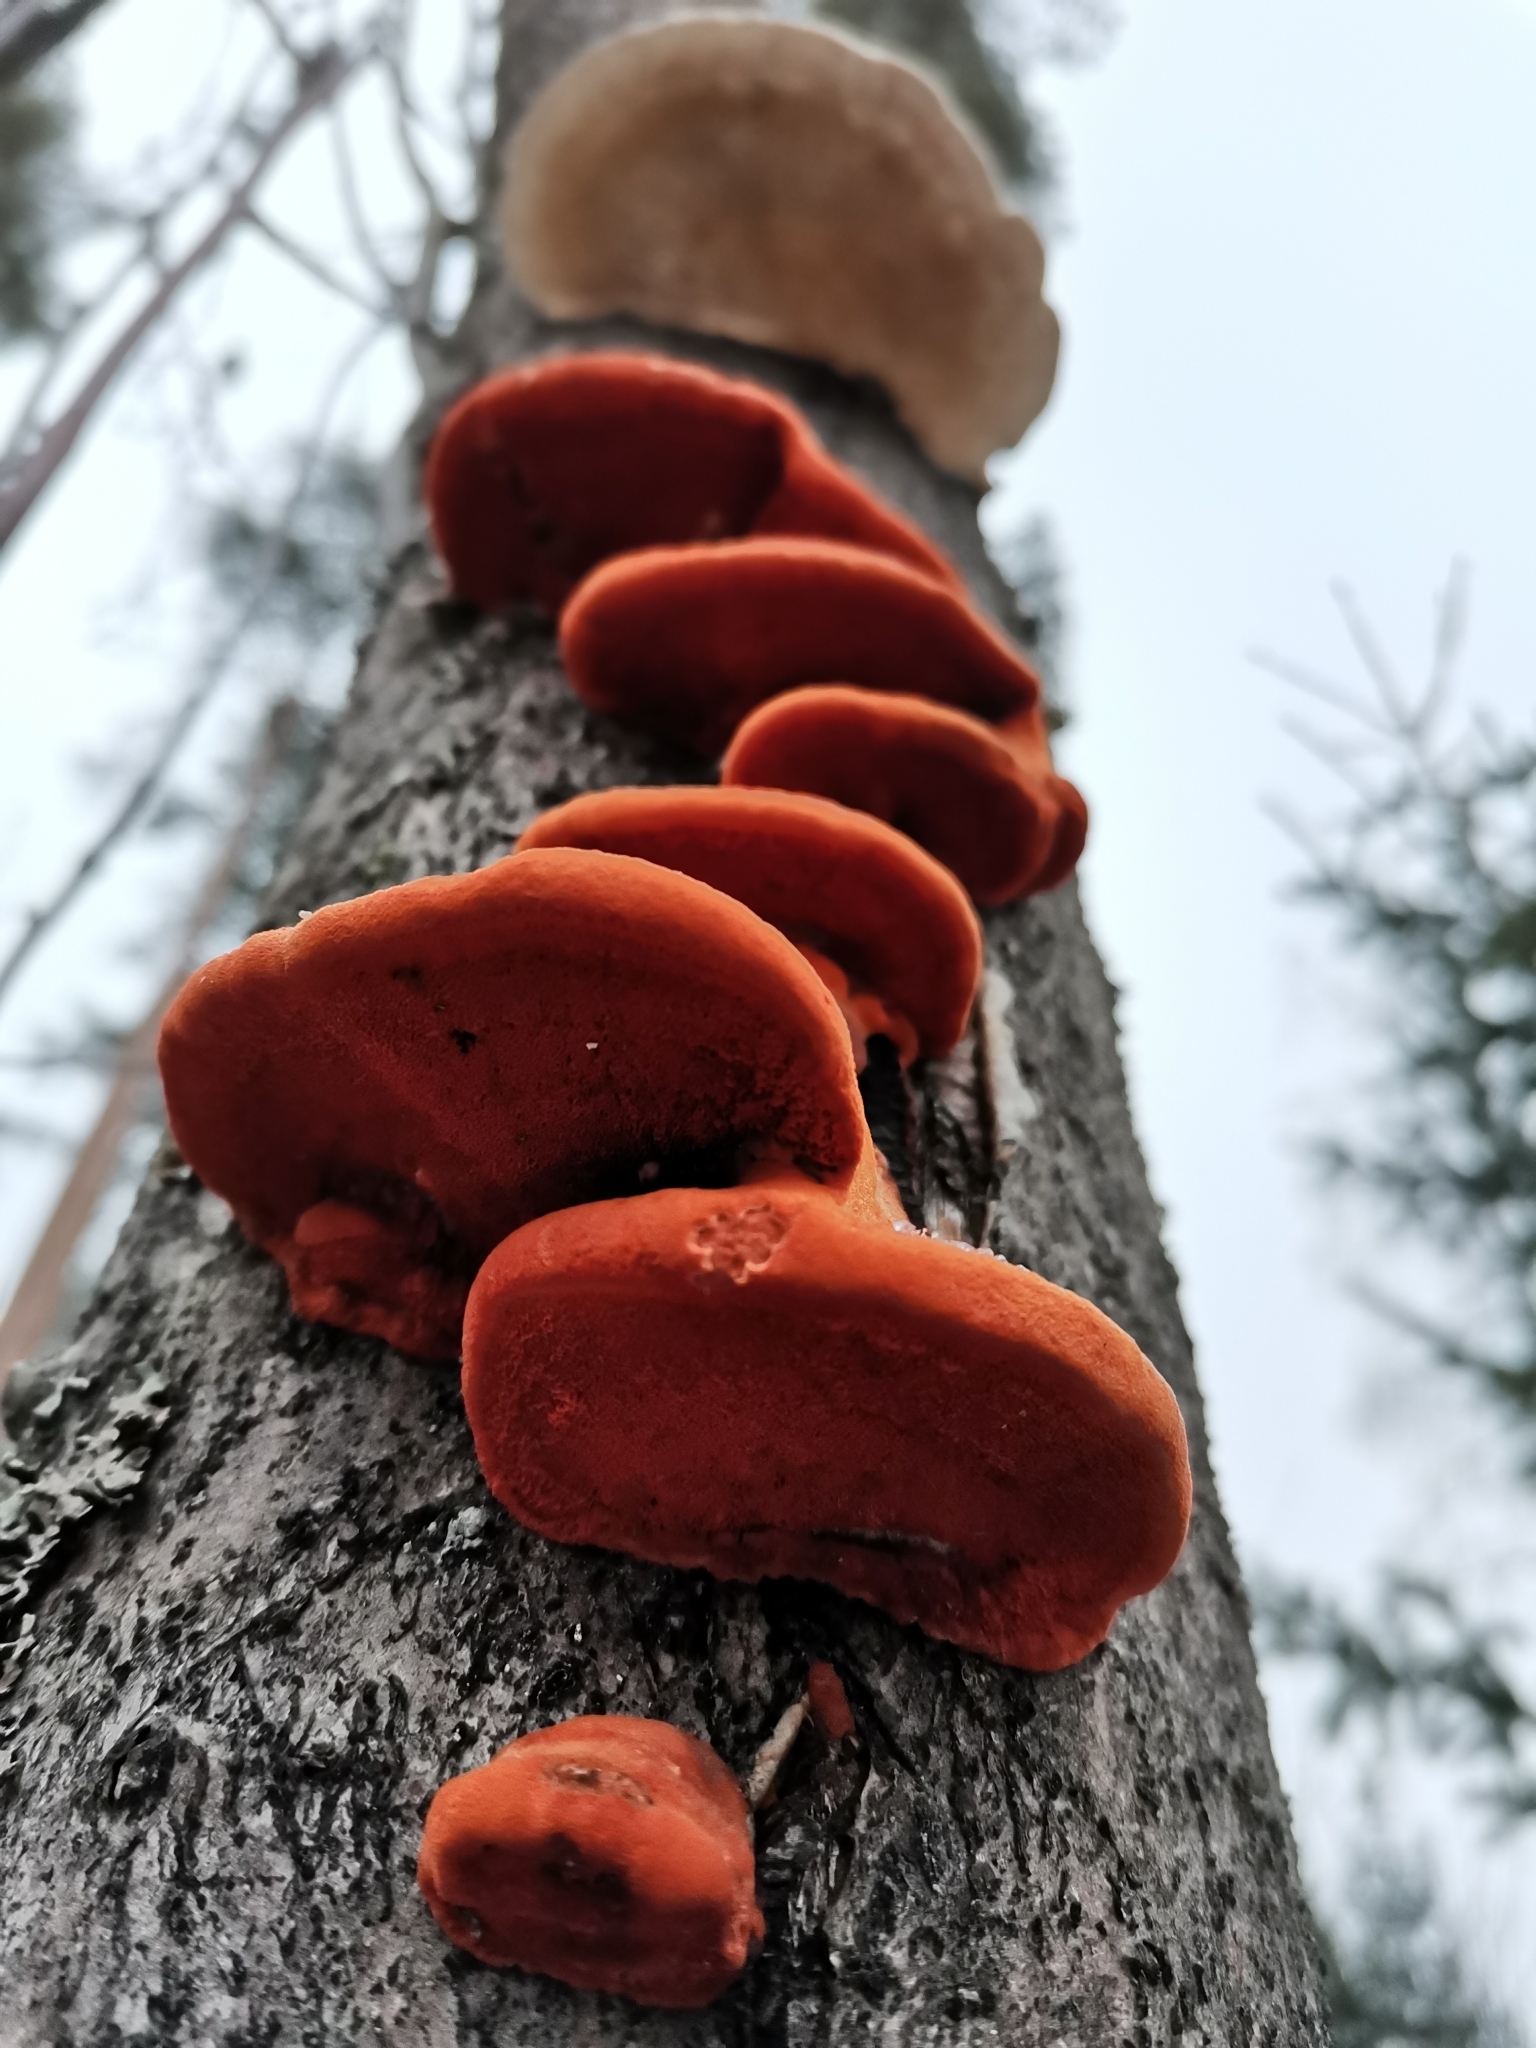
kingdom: Fungi
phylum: Basidiomycota
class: Agaricomycetes
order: Polyporales
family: Polyporaceae
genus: Trametes
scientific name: Trametes cinnabarina
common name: Northern cinnabar polypore
